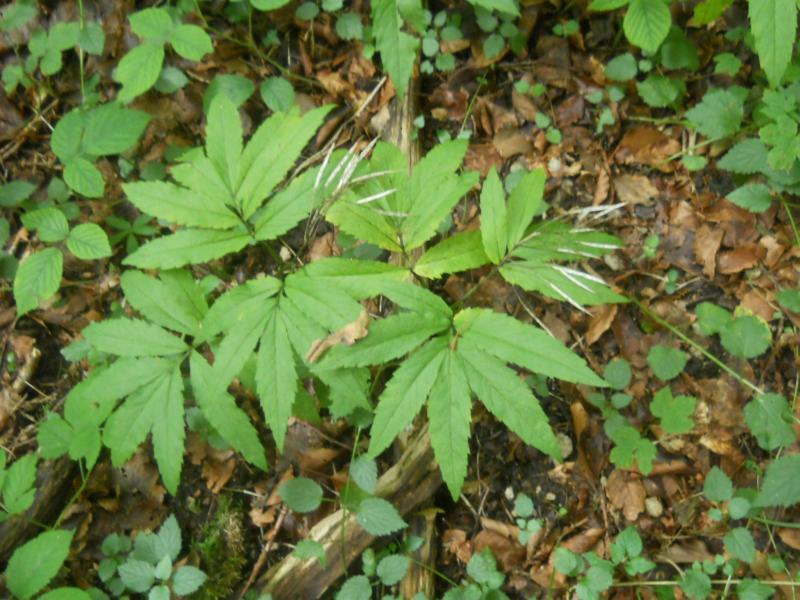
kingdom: Plantae
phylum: Tracheophyta
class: Magnoliopsida
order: Brassicales
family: Brassicaceae
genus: Cardamine
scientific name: Cardamine heptaphylla
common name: Pinnate coralroot
